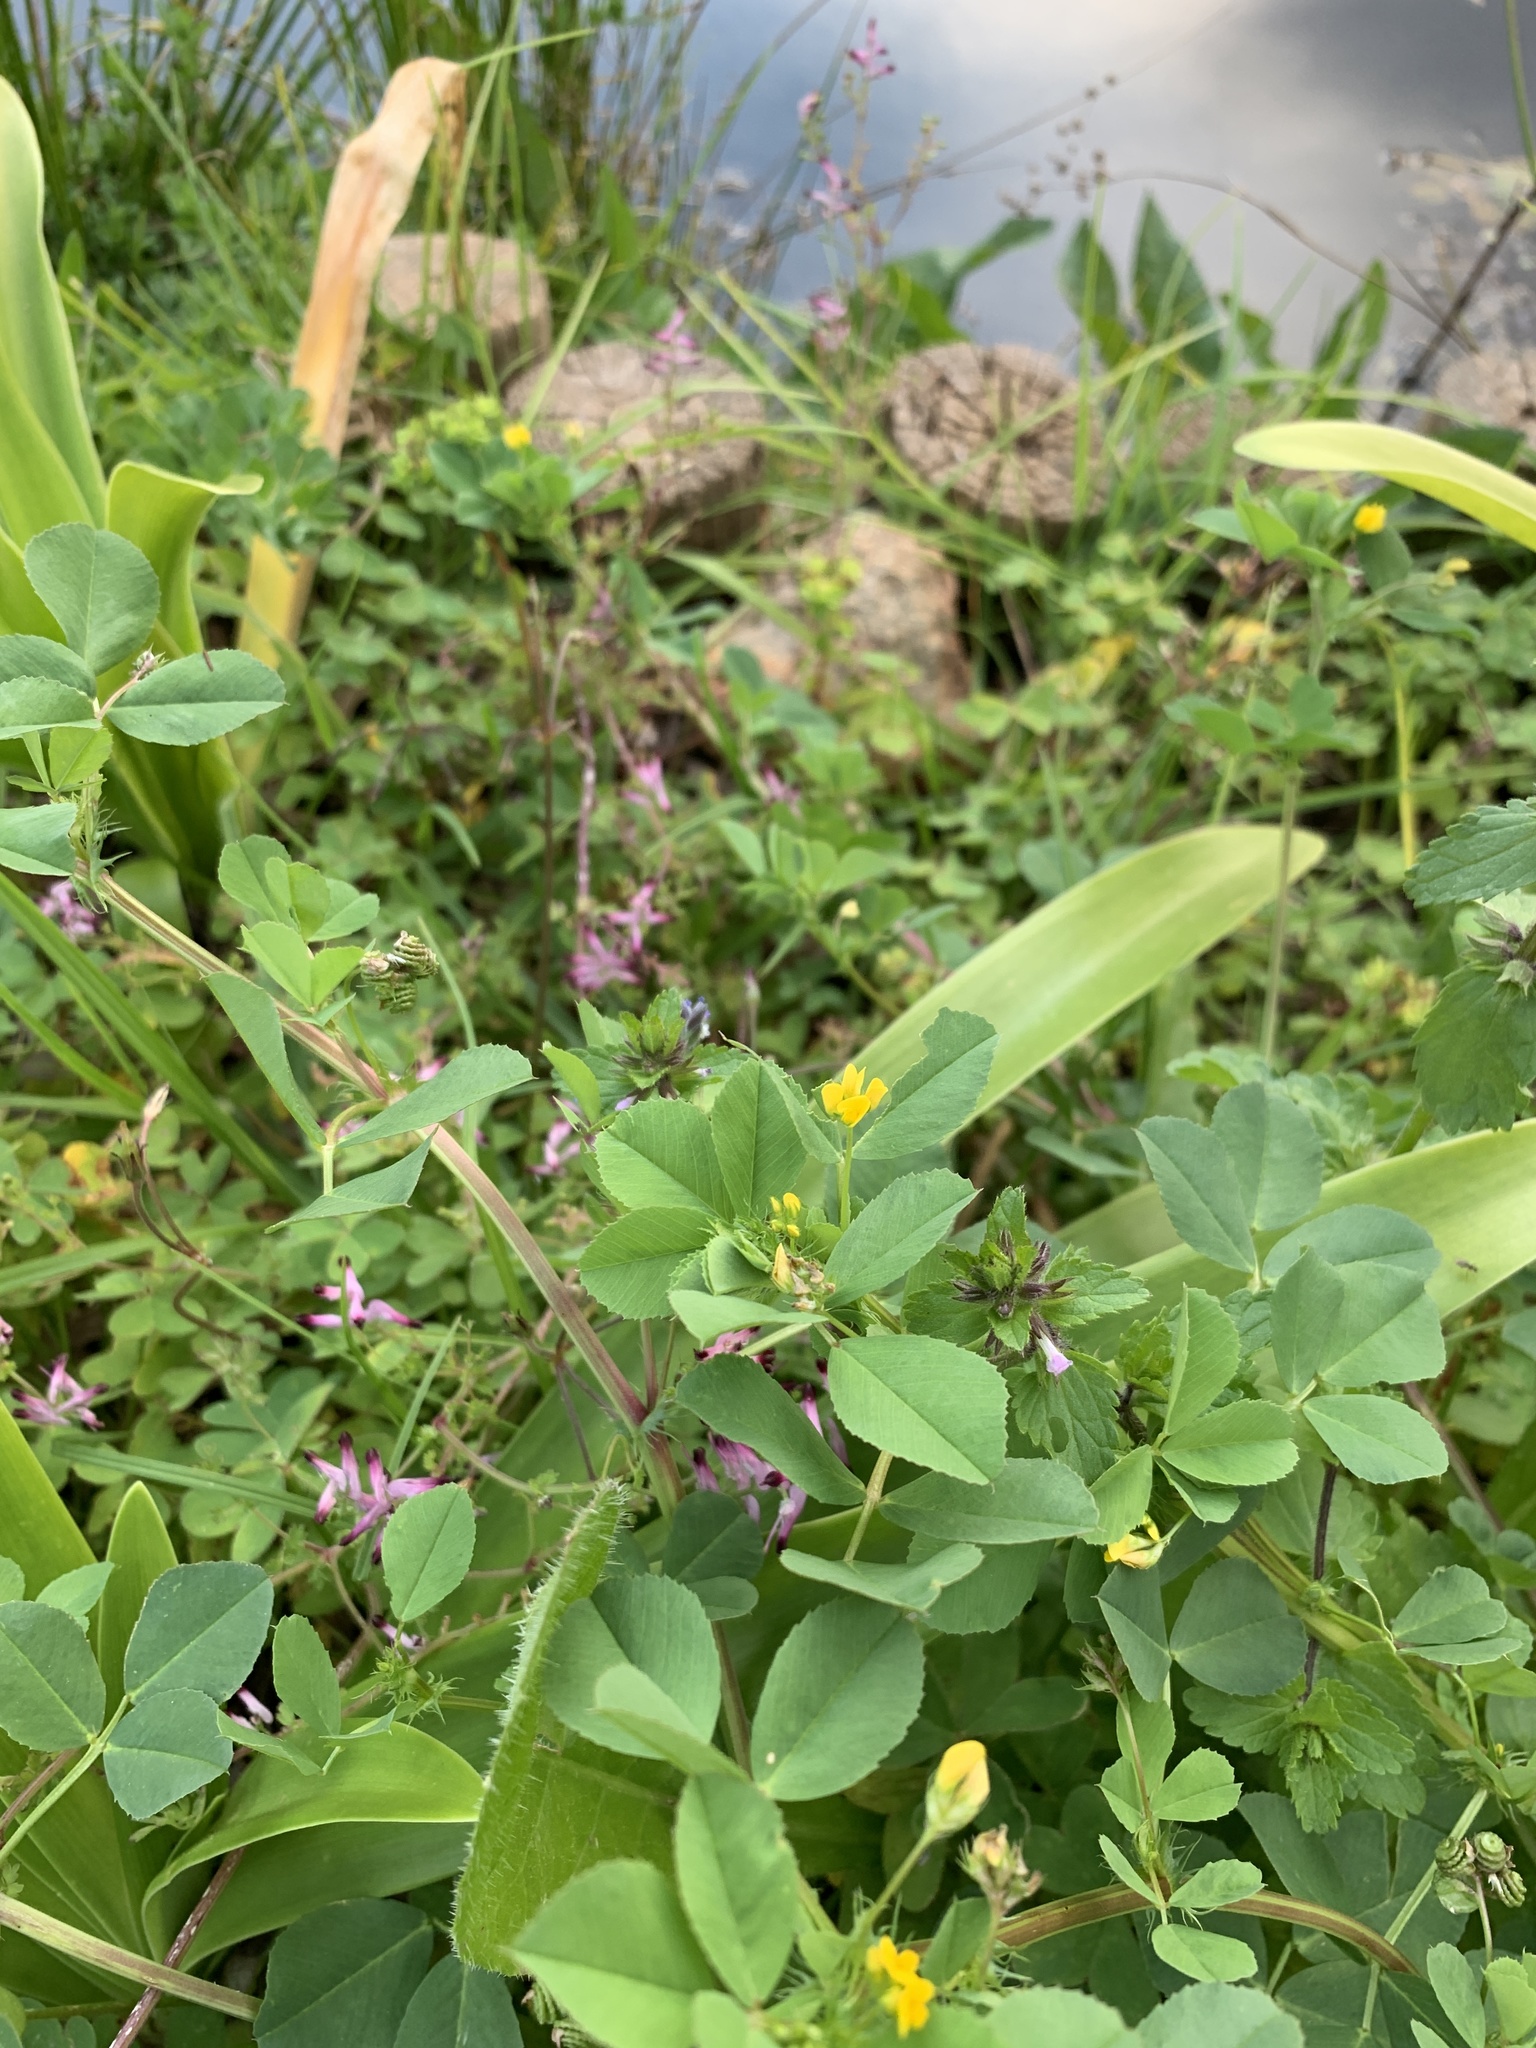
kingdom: Plantae
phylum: Tracheophyta
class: Magnoliopsida
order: Fabales
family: Fabaceae
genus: Medicago
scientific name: Medicago polymorpha
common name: Burclover
